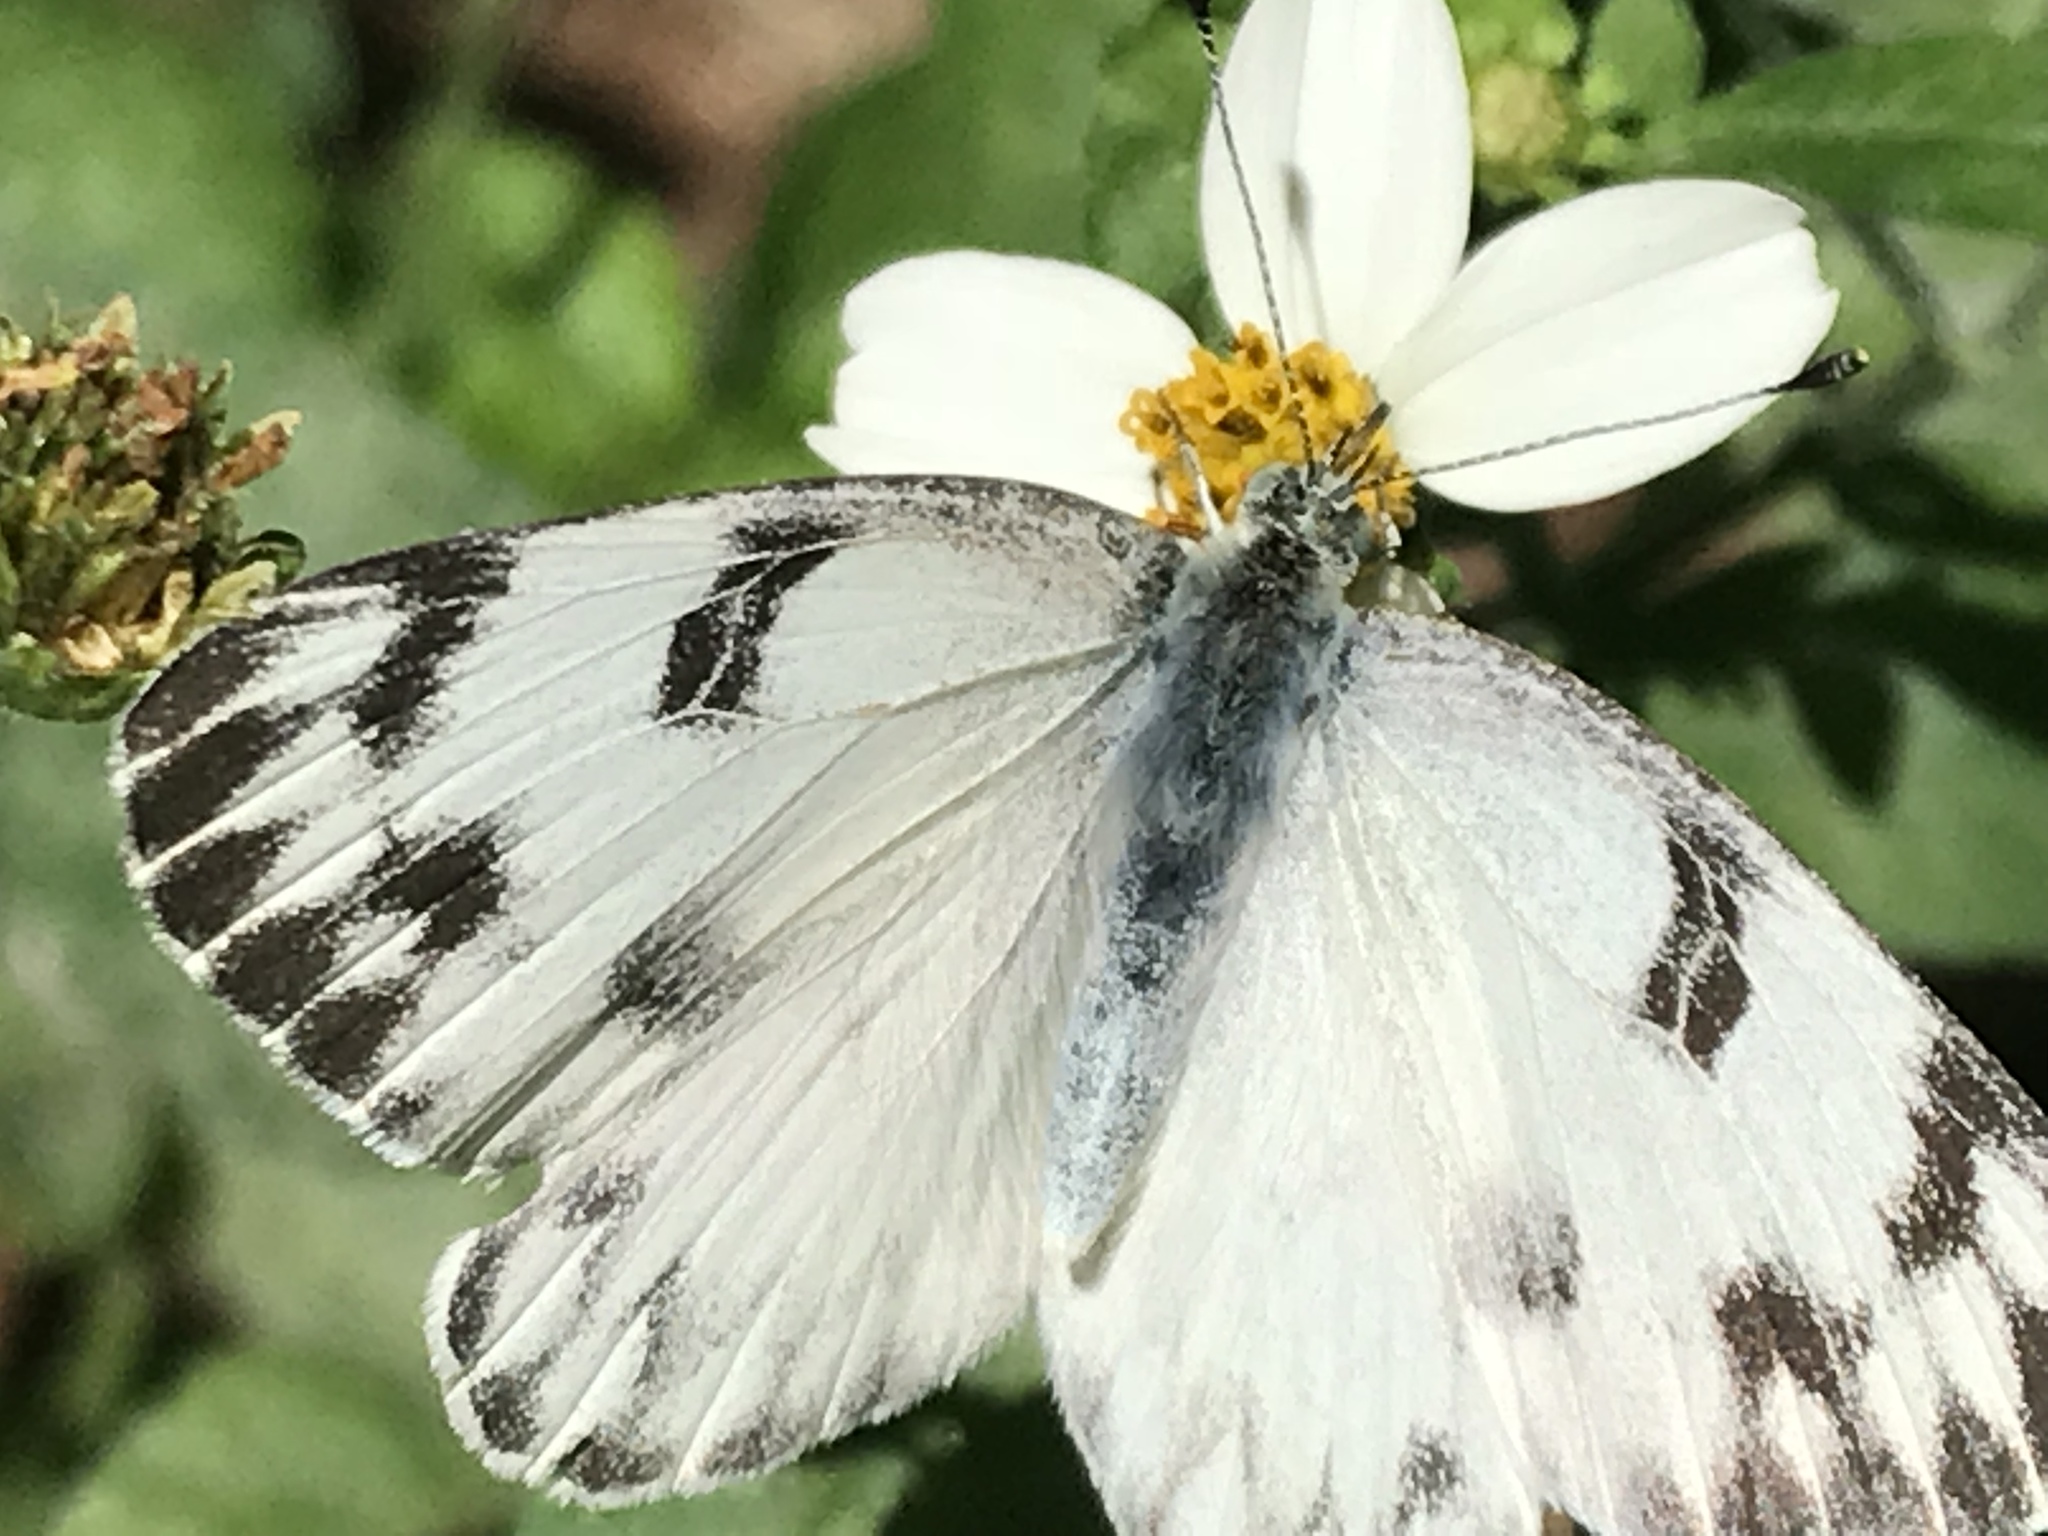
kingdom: Animalia
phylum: Arthropoda
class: Insecta
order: Lepidoptera
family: Pieridae
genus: Pontia
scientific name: Pontia protodice
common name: Checkered white
